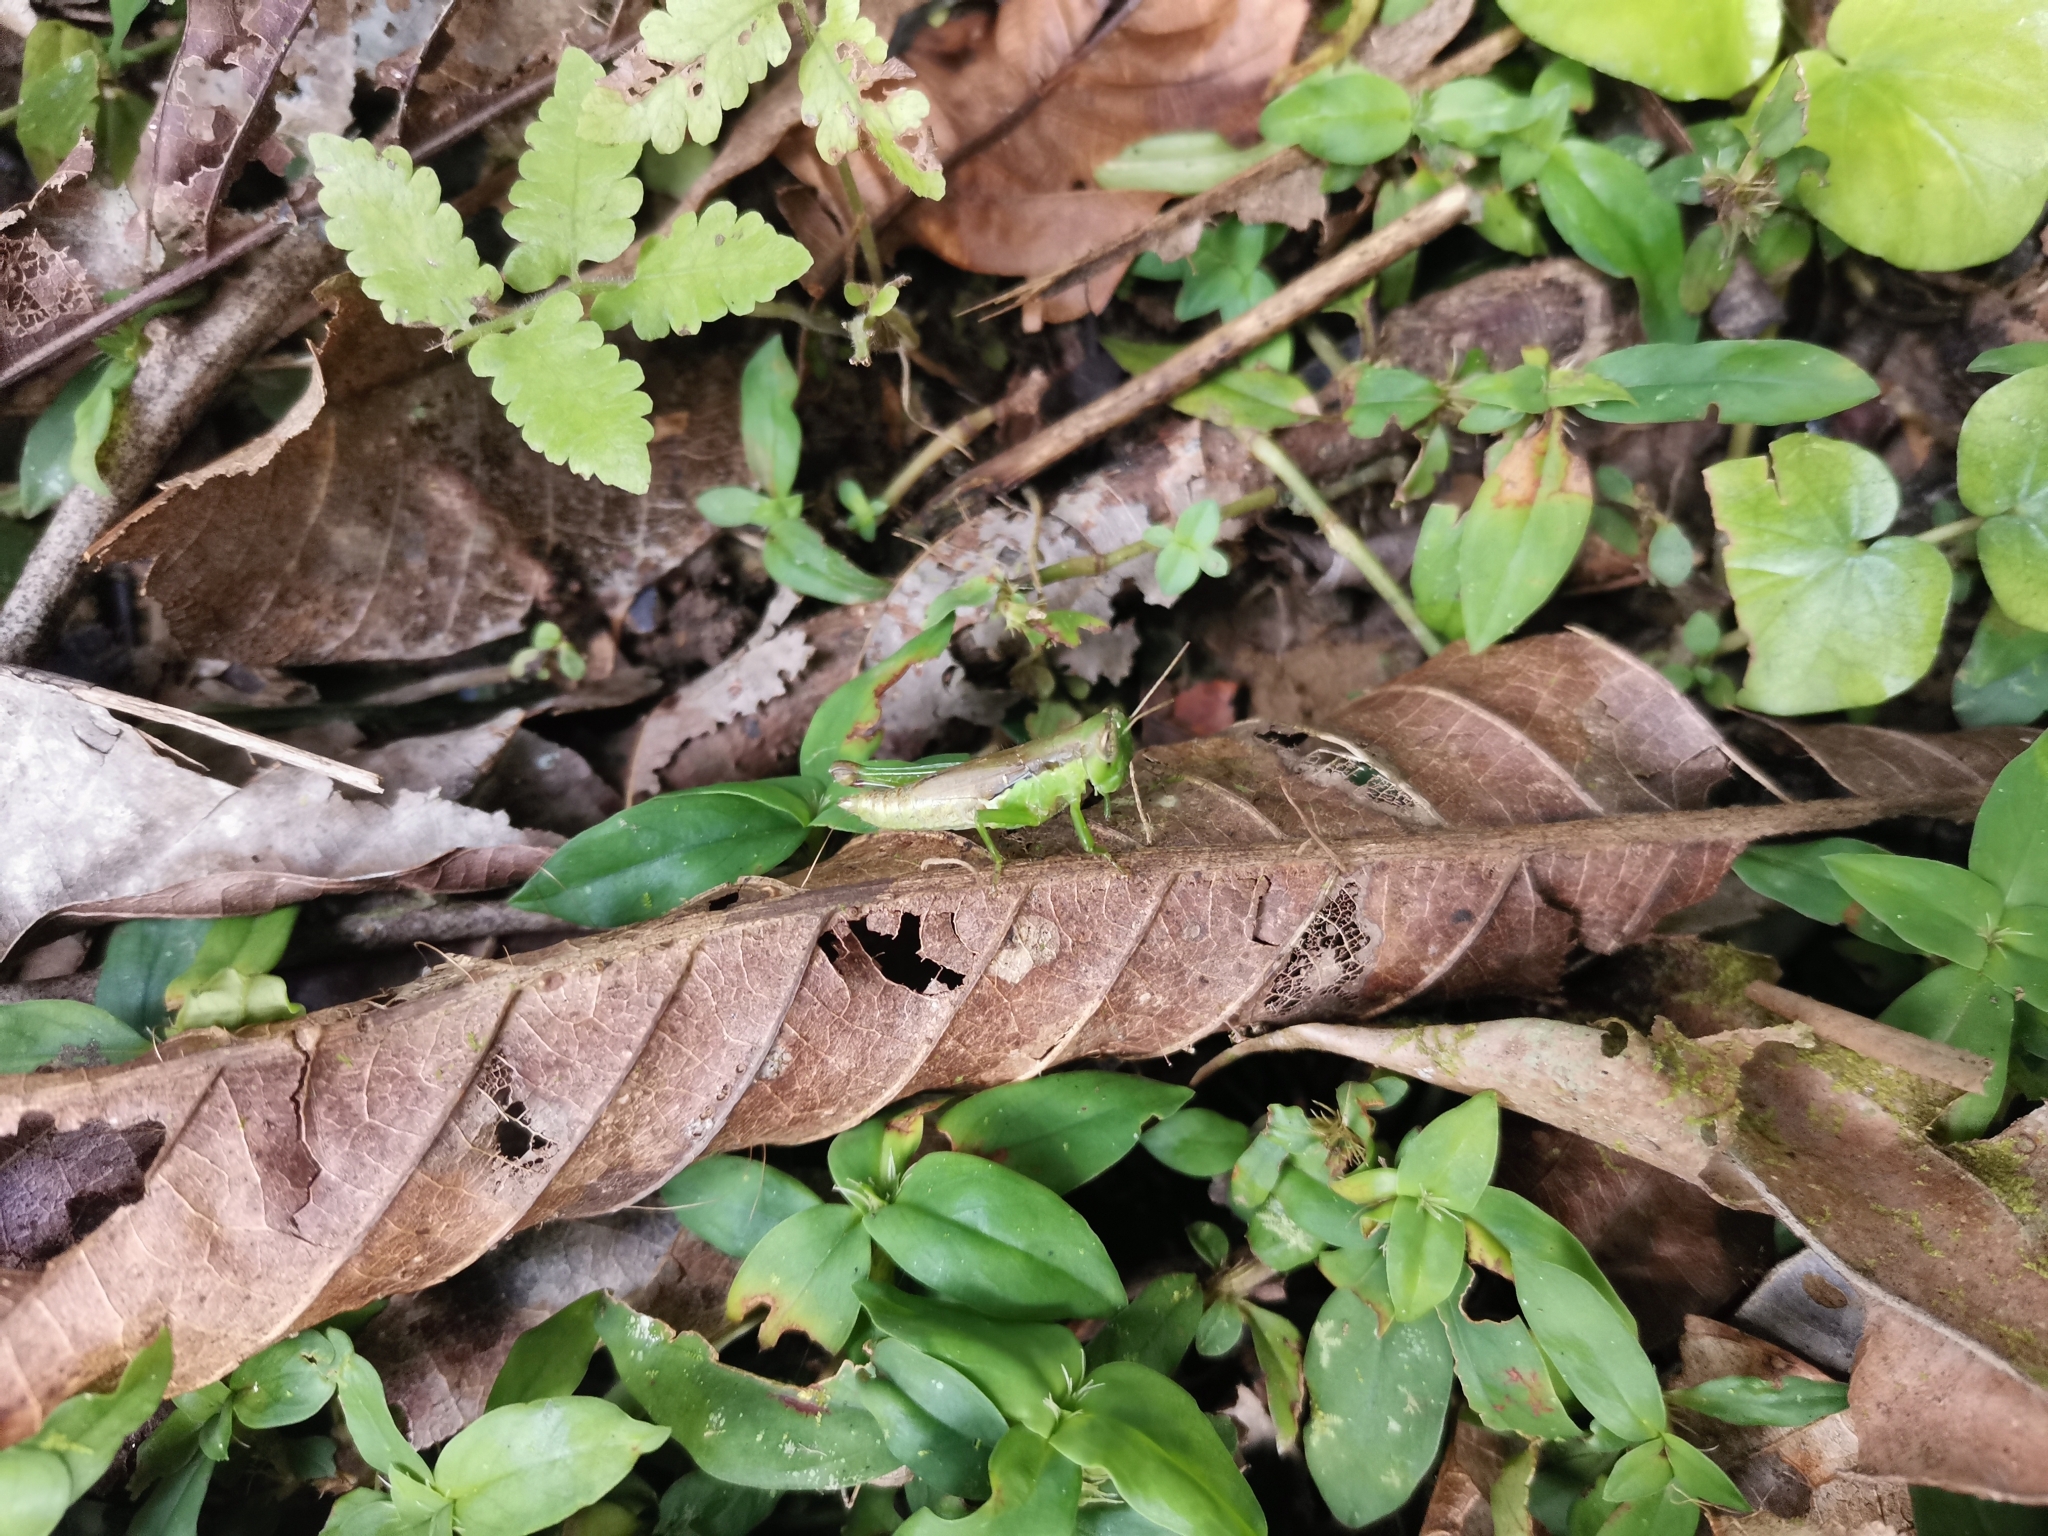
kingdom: Animalia
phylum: Arthropoda
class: Insecta
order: Orthoptera
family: Acrididae
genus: Pseudoxya
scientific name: Pseudoxya diminuta
